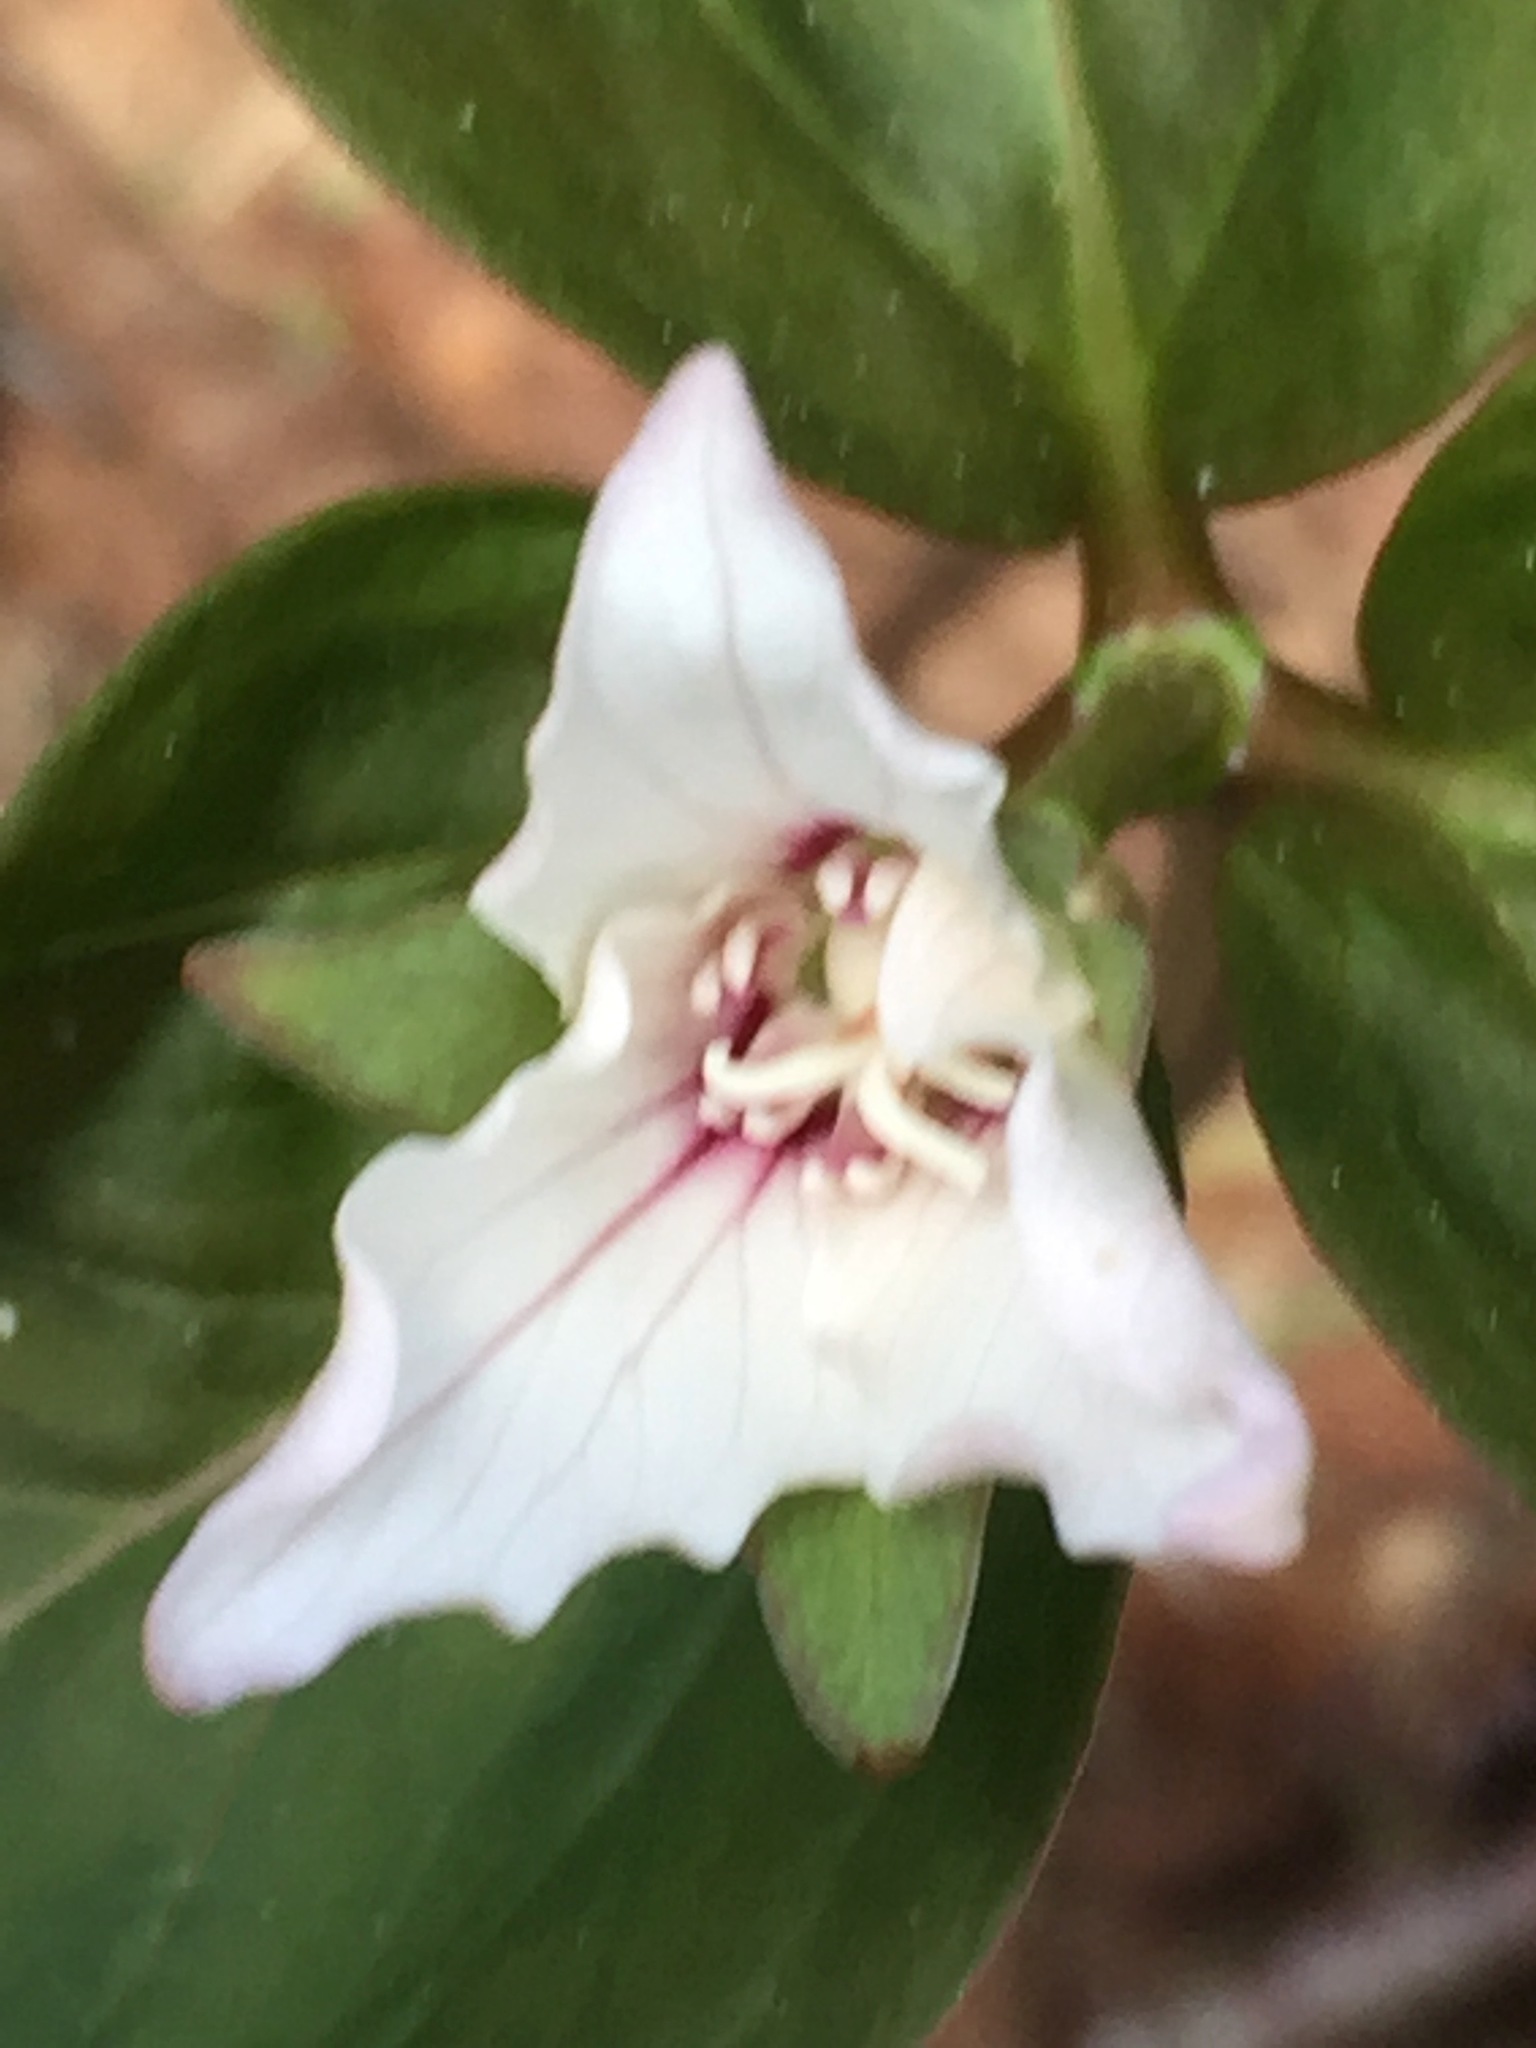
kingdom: Plantae
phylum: Tracheophyta
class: Liliopsida
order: Liliales
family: Melanthiaceae
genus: Trillium
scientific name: Trillium undulatum
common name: Paint trillium
